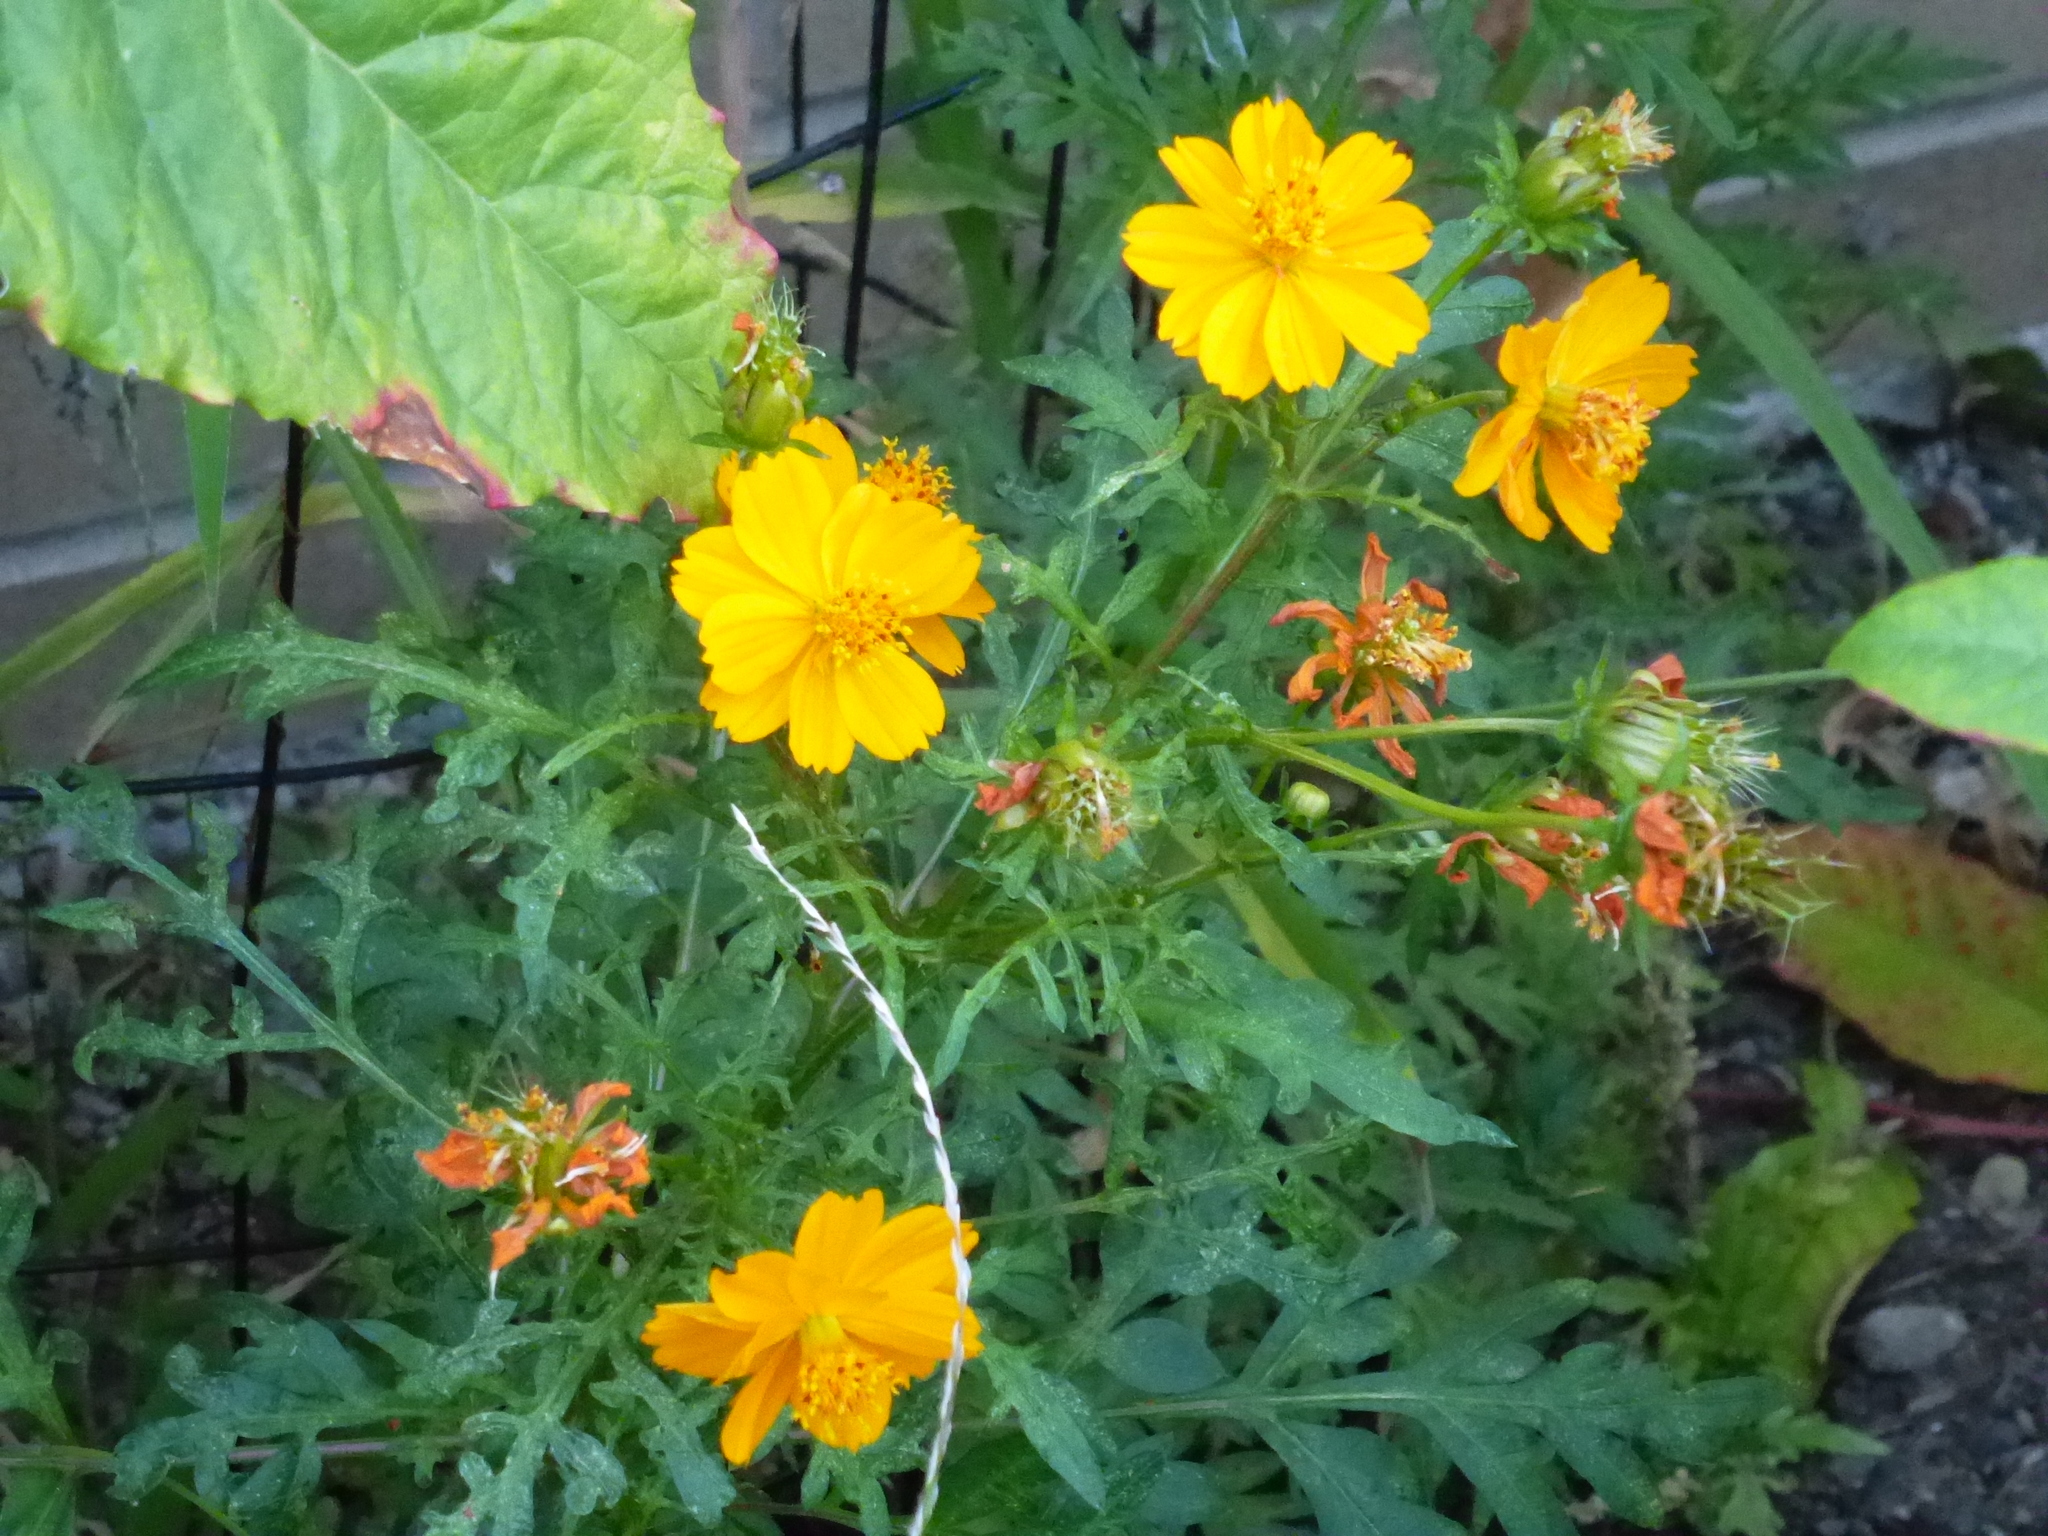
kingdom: Plantae
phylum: Tracheophyta
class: Magnoliopsida
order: Asterales
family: Asteraceae
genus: Cosmos
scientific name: Cosmos sulphureus
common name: Sulphur cosmos
